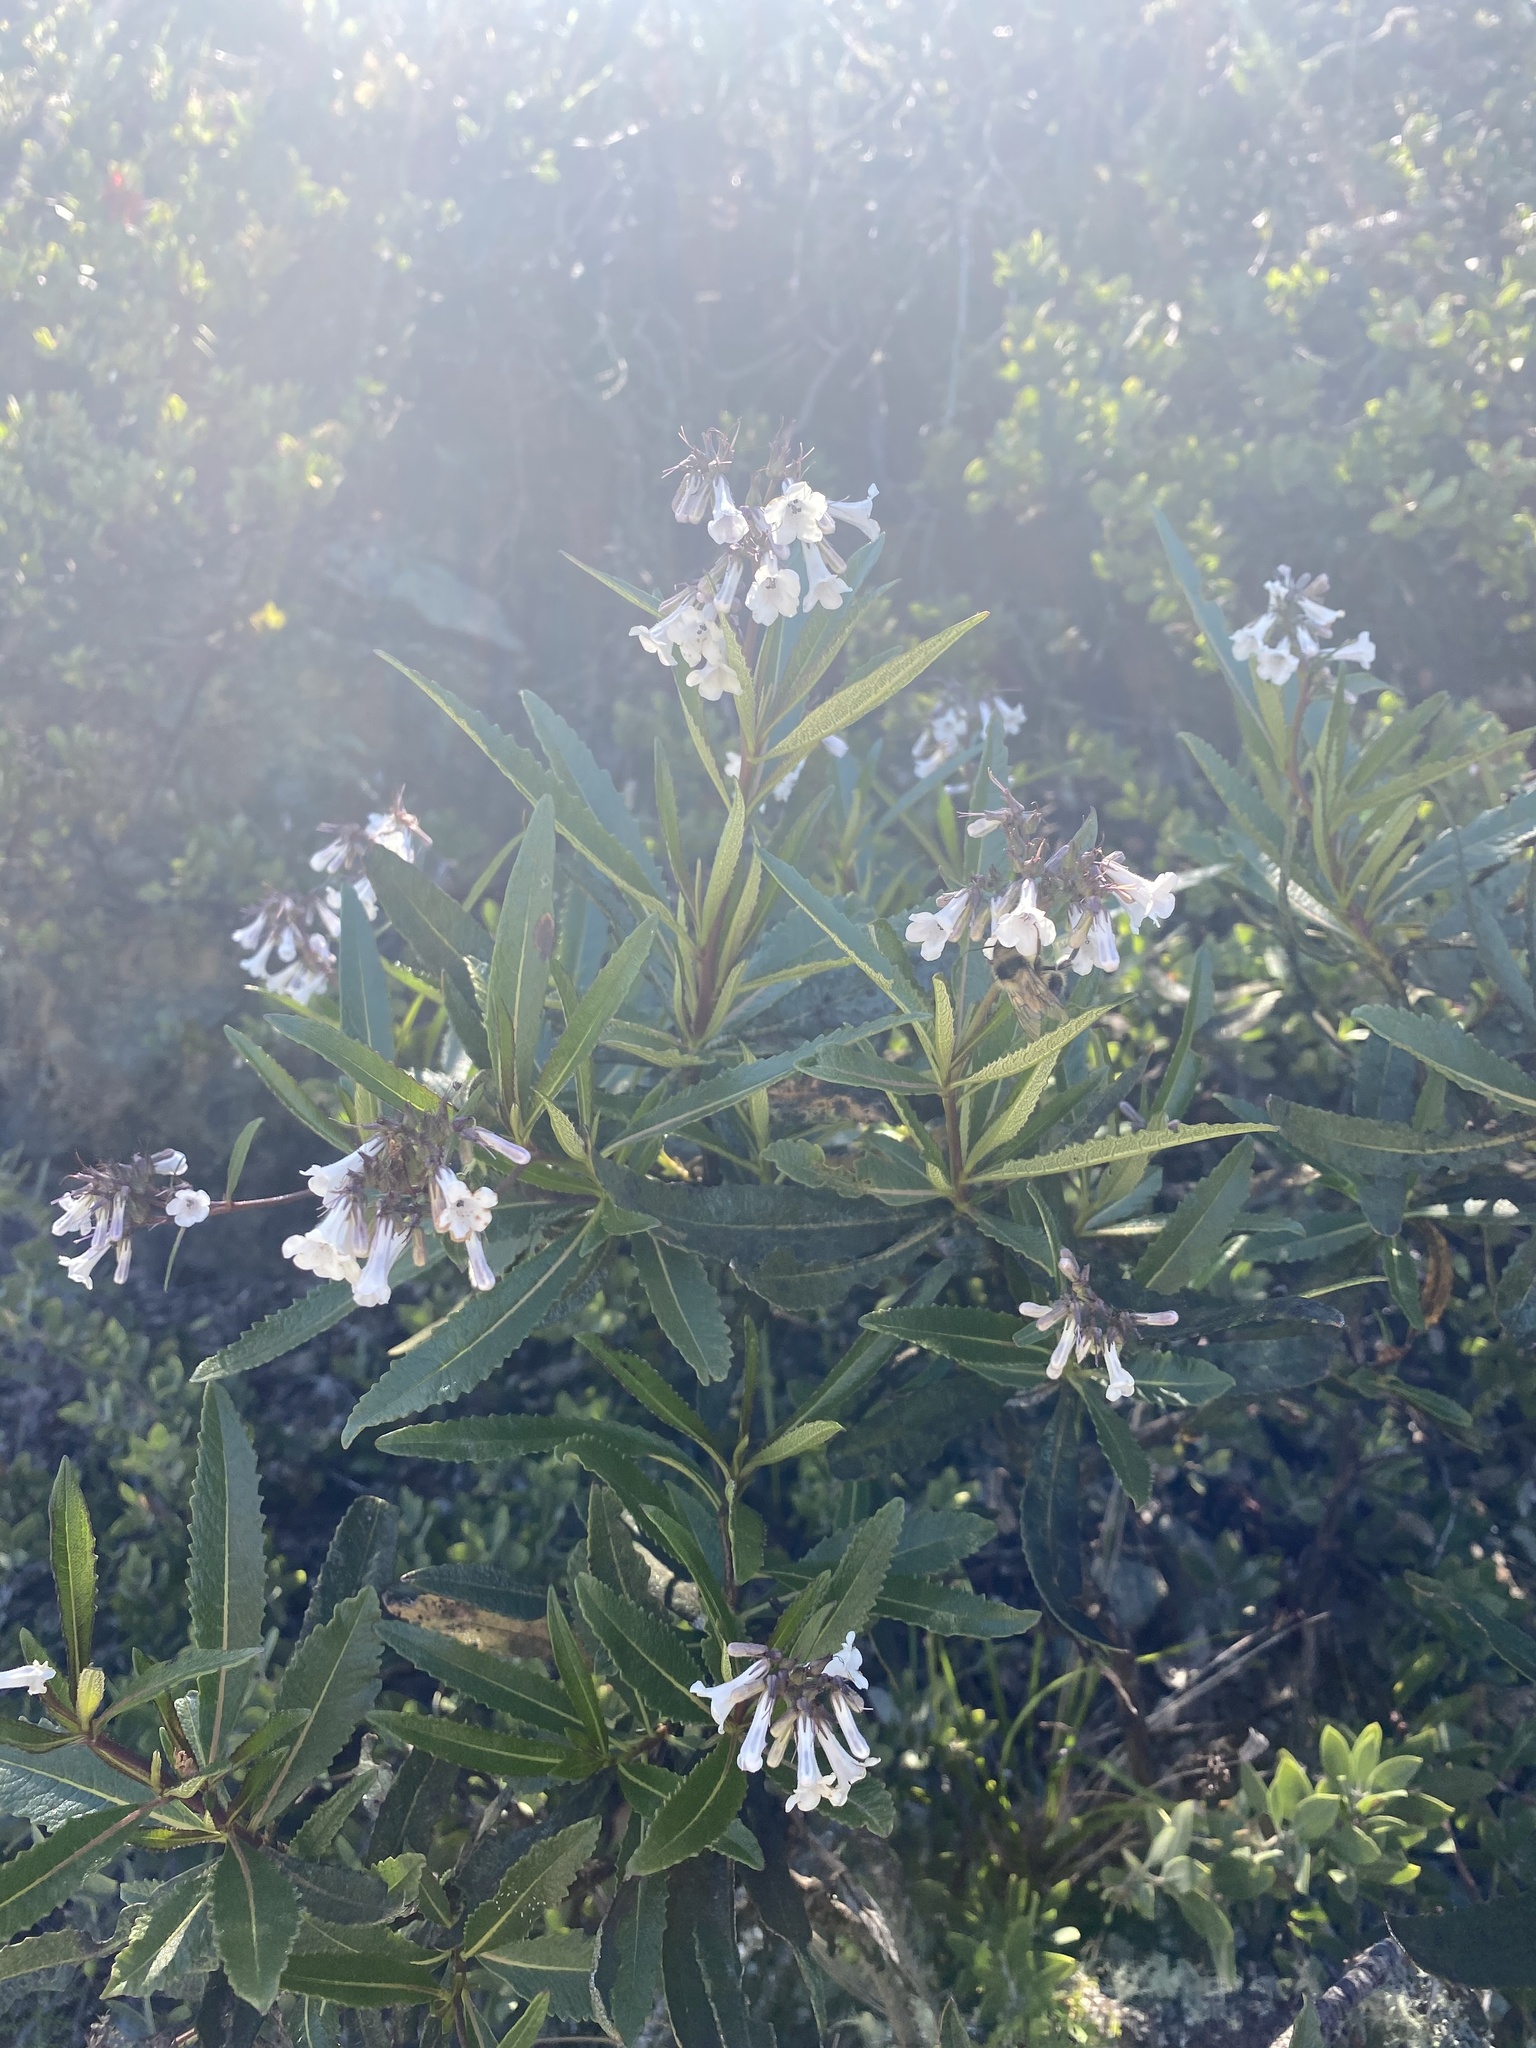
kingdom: Plantae
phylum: Tracheophyta
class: Magnoliopsida
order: Boraginales
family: Namaceae
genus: Eriodictyon
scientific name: Eriodictyon californicum
